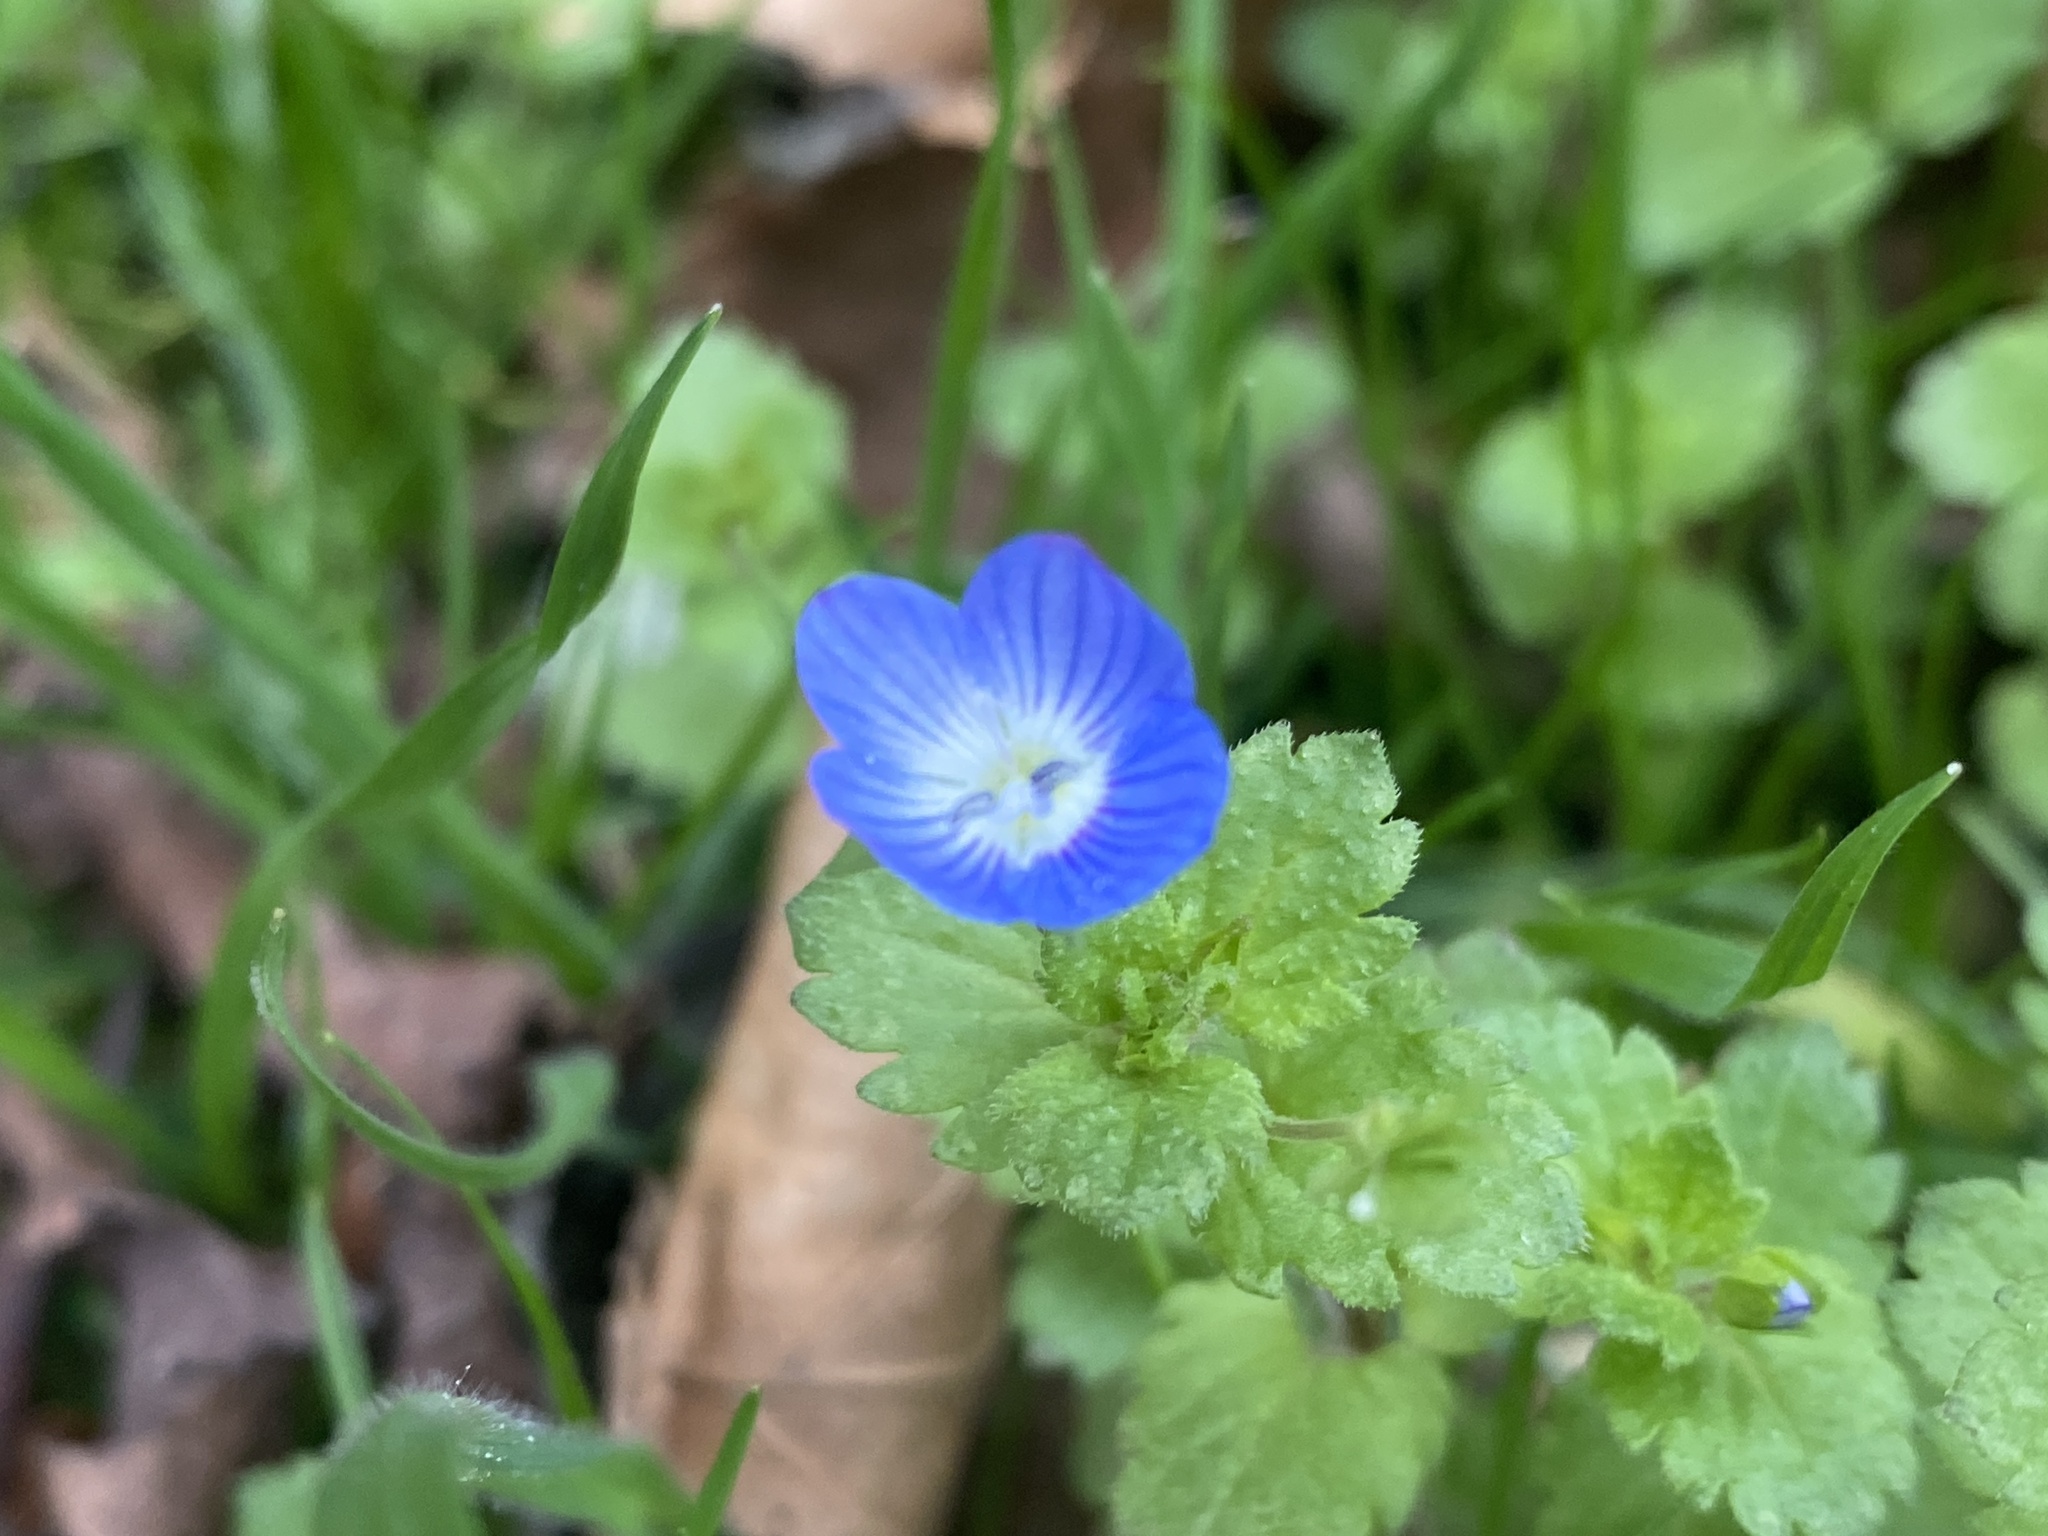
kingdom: Plantae
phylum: Tracheophyta
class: Magnoliopsida
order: Lamiales
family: Plantaginaceae
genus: Veronica
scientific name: Veronica persica
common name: Common field-speedwell
